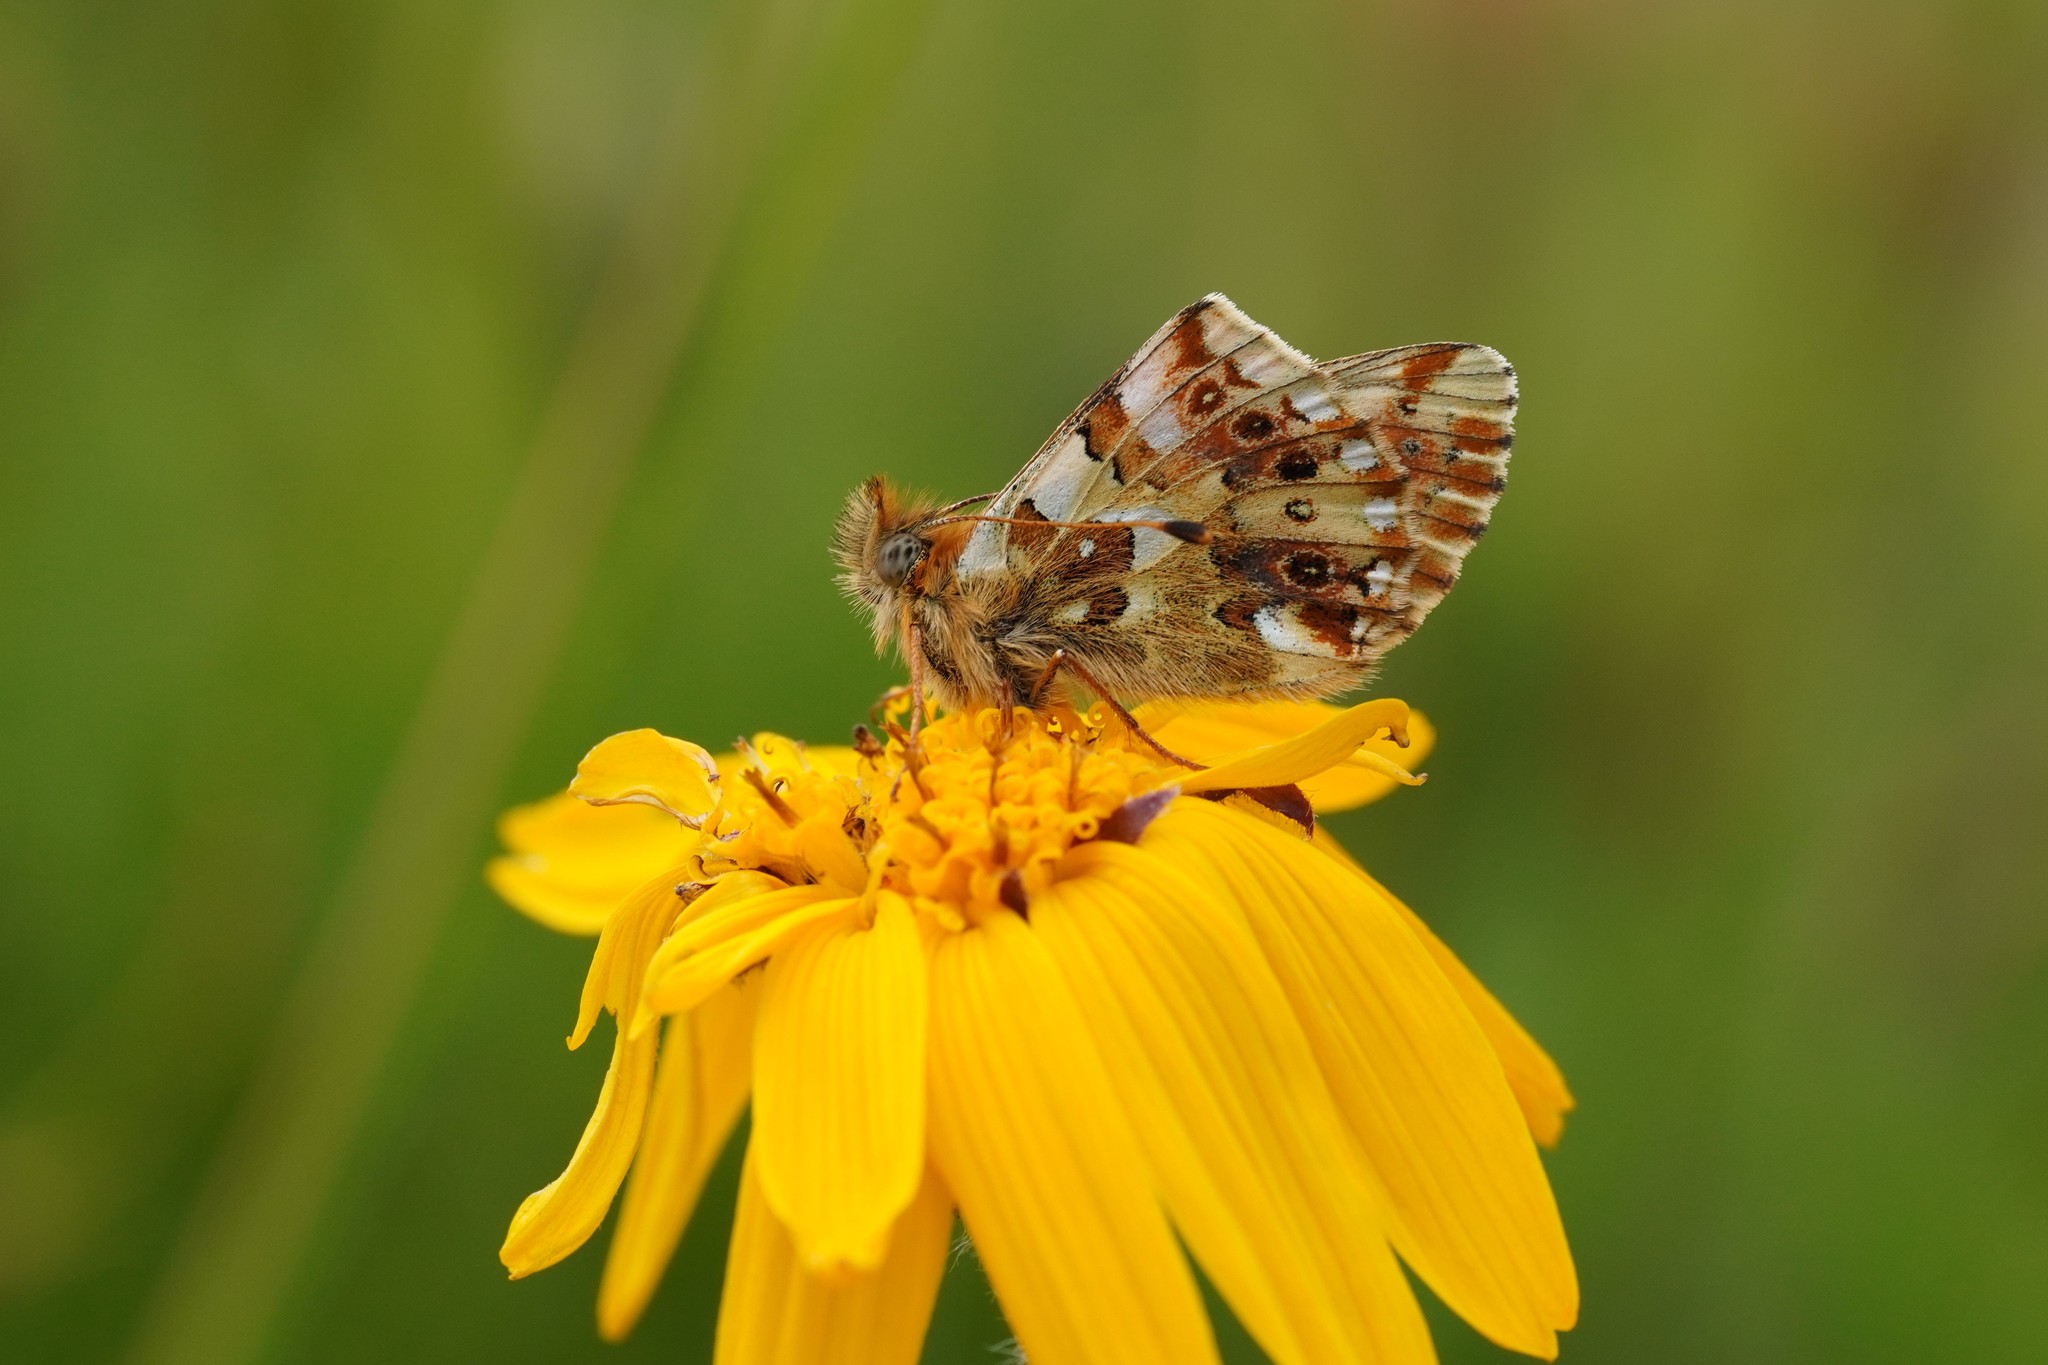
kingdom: Animalia
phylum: Arthropoda
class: Insecta
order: Lepidoptera
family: Nymphalidae
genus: Boloria
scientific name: Boloria graeca
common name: Balkan fritillary
